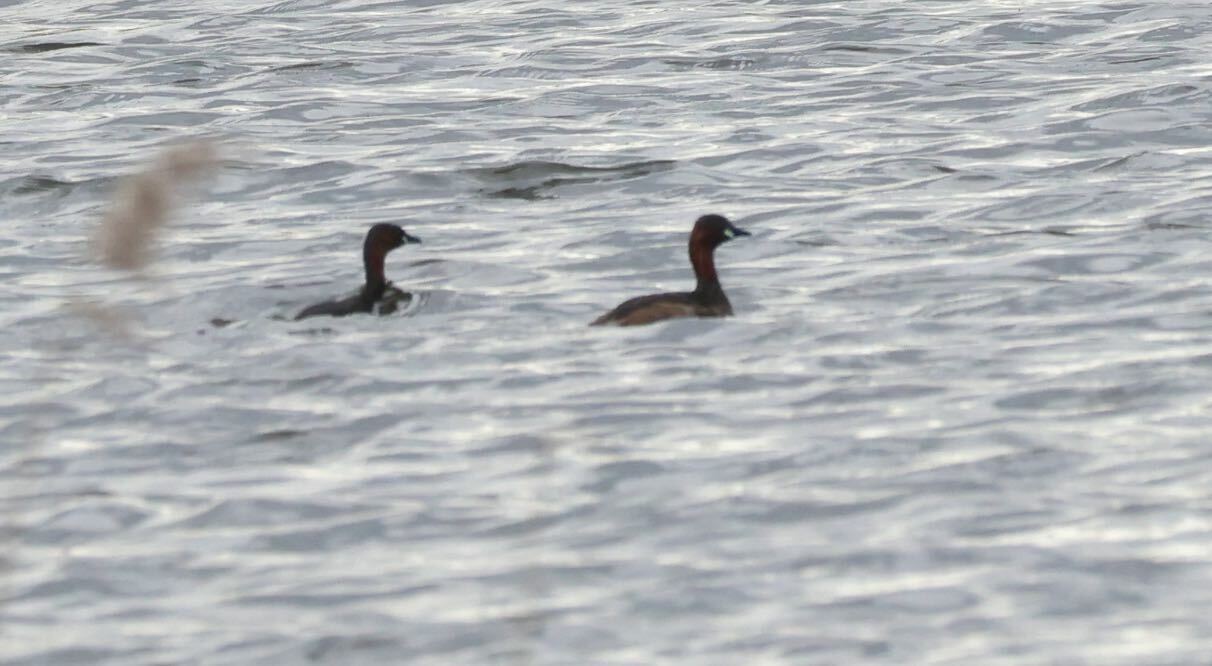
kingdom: Animalia
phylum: Chordata
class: Aves
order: Podicipediformes
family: Podicipedidae
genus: Tachybaptus
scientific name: Tachybaptus ruficollis
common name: Little grebe
